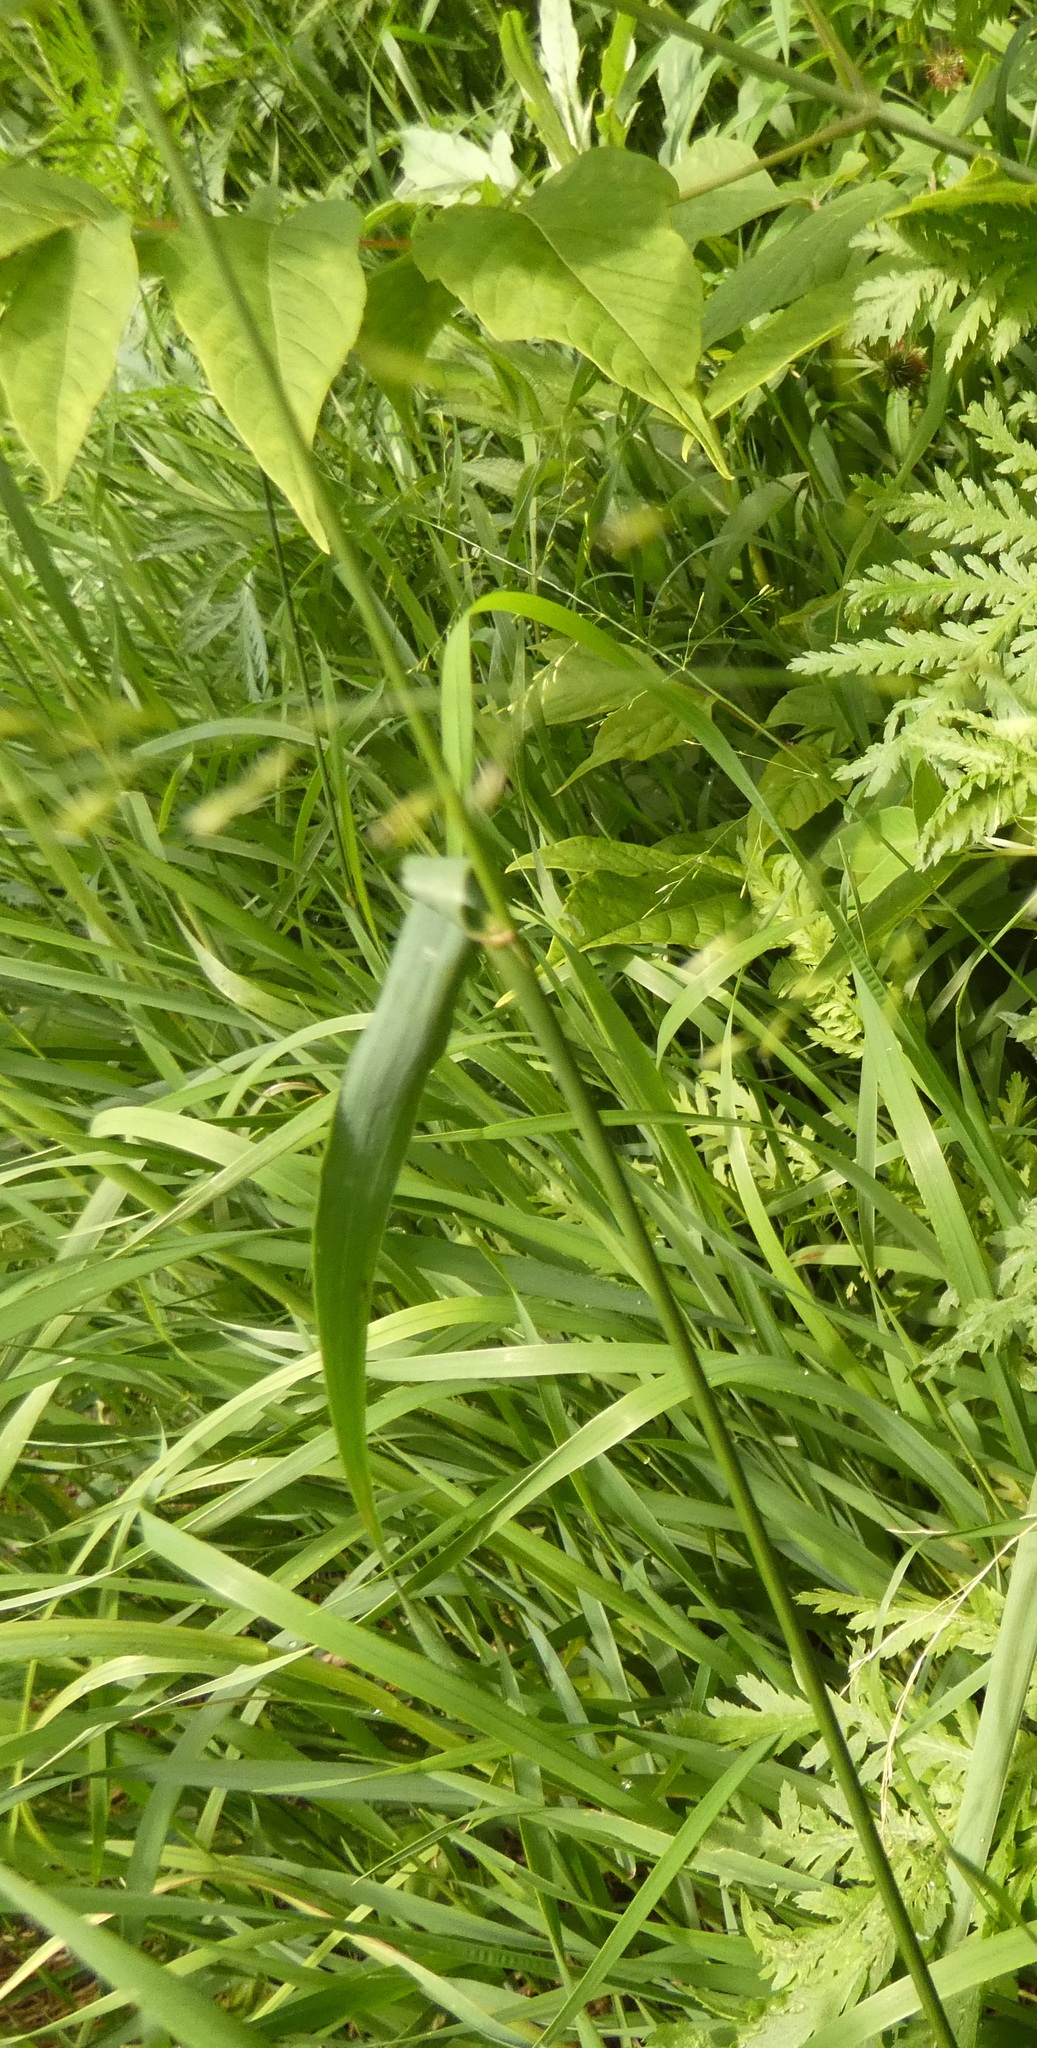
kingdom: Plantae
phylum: Tracheophyta
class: Liliopsida
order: Poales
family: Poaceae
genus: Dactylis
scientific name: Dactylis glomerata
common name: Orchardgrass
